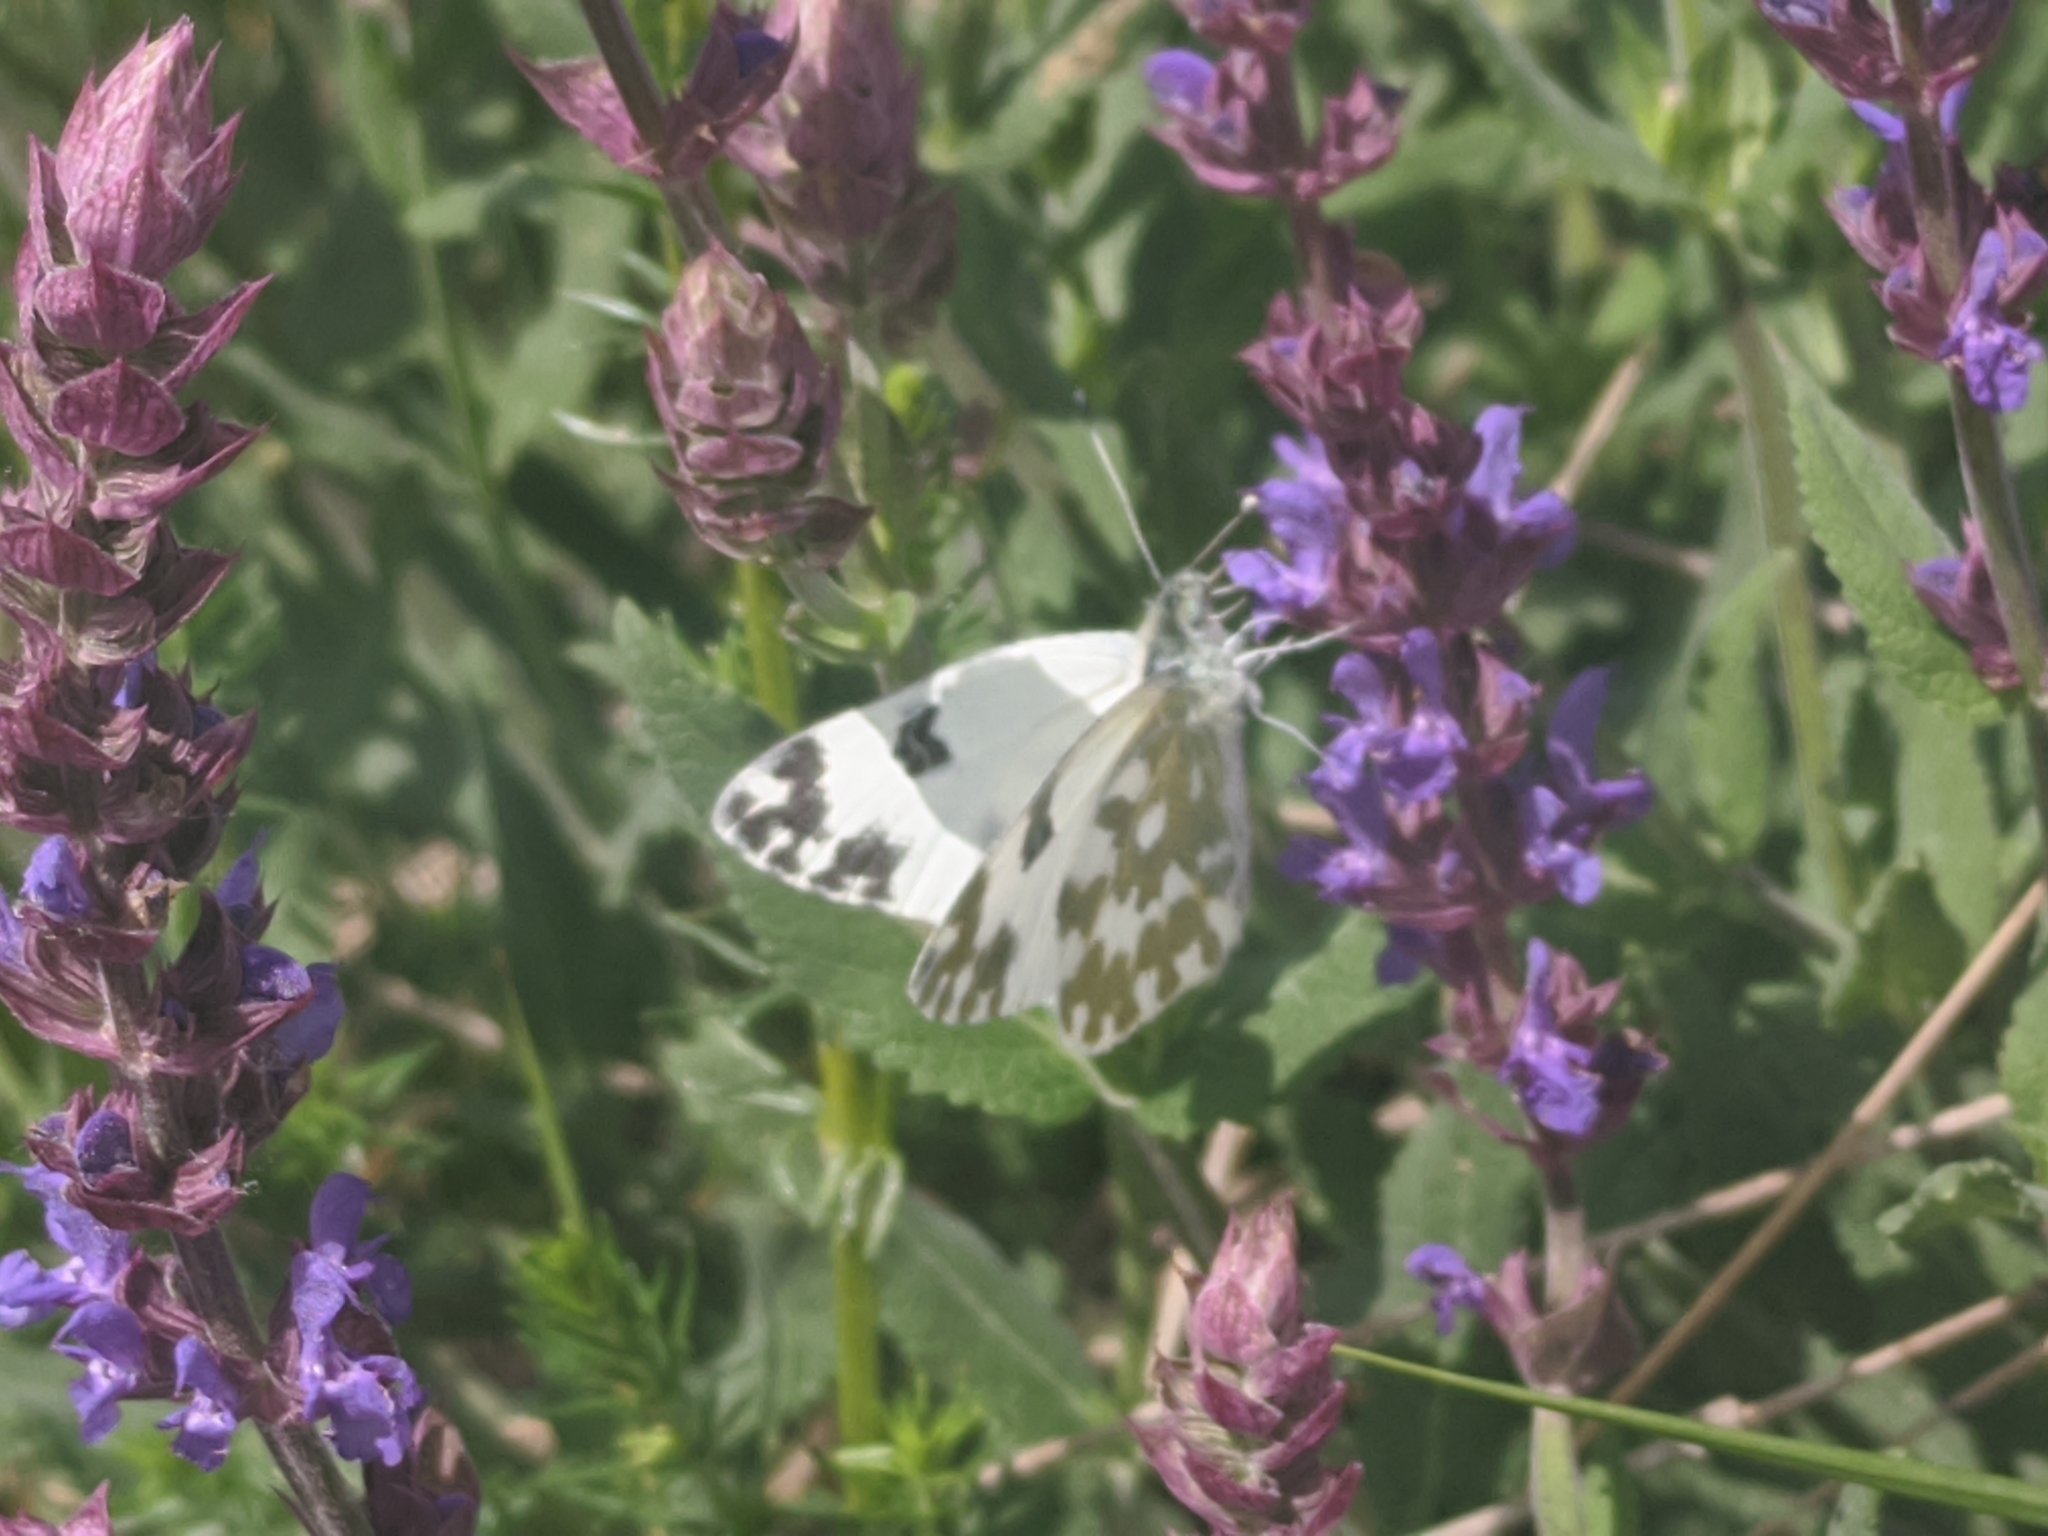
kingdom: Animalia
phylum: Arthropoda
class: Insecta
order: Lepidoptera
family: Pieridae
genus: Pontia
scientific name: Pontia edusa
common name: Eastern bath white
